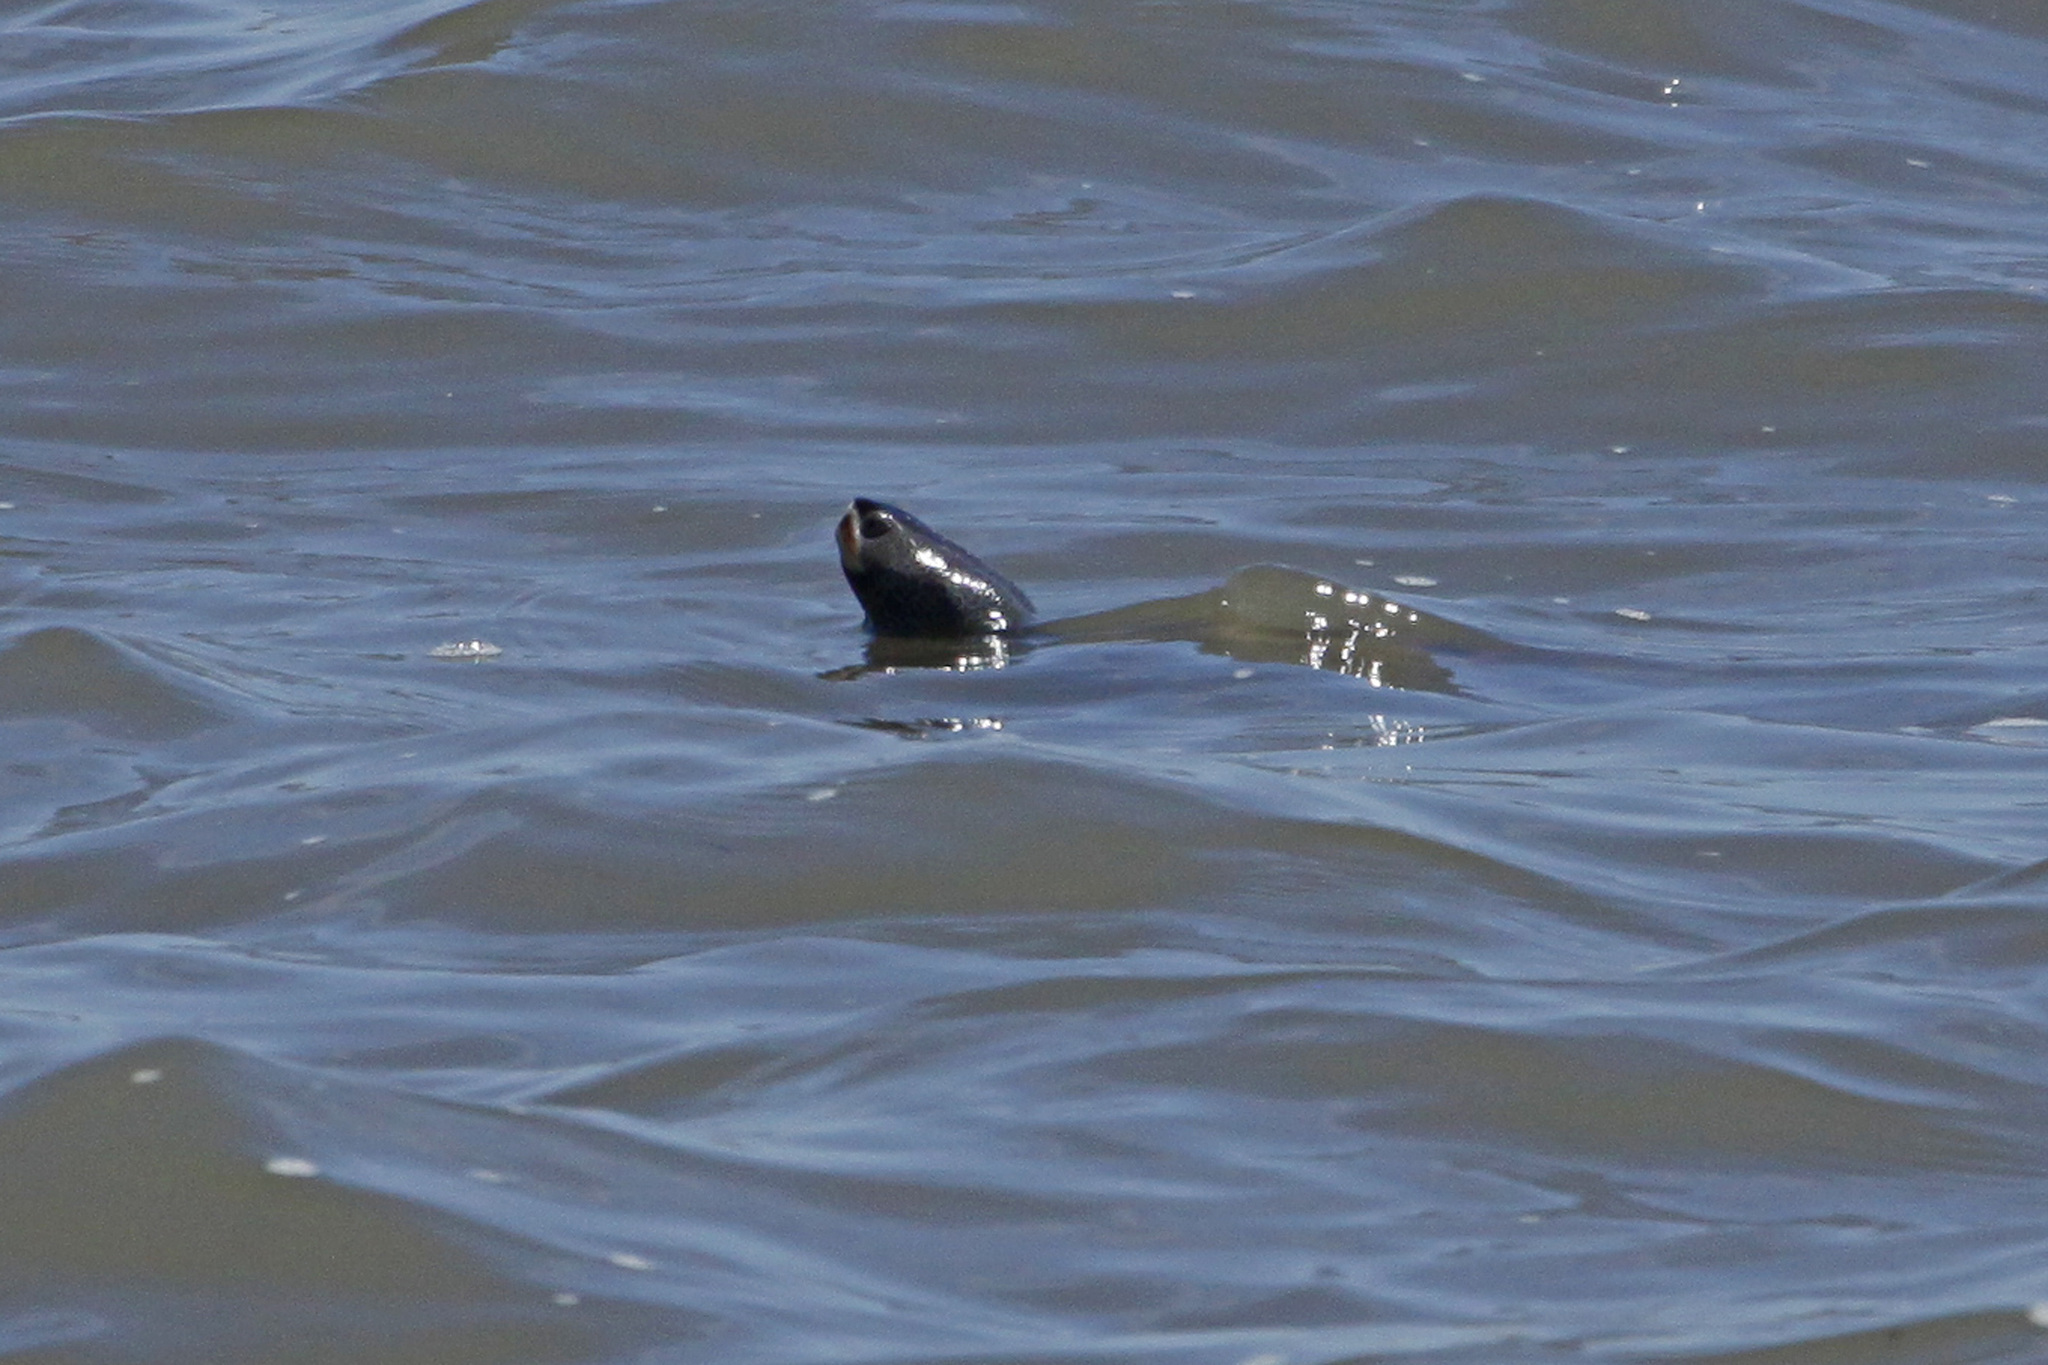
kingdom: Animalia
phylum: Chordata
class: Testudines
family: Emydidae
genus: Malaclemys
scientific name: Malaclemys terrapin
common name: Diamondback terrapin
